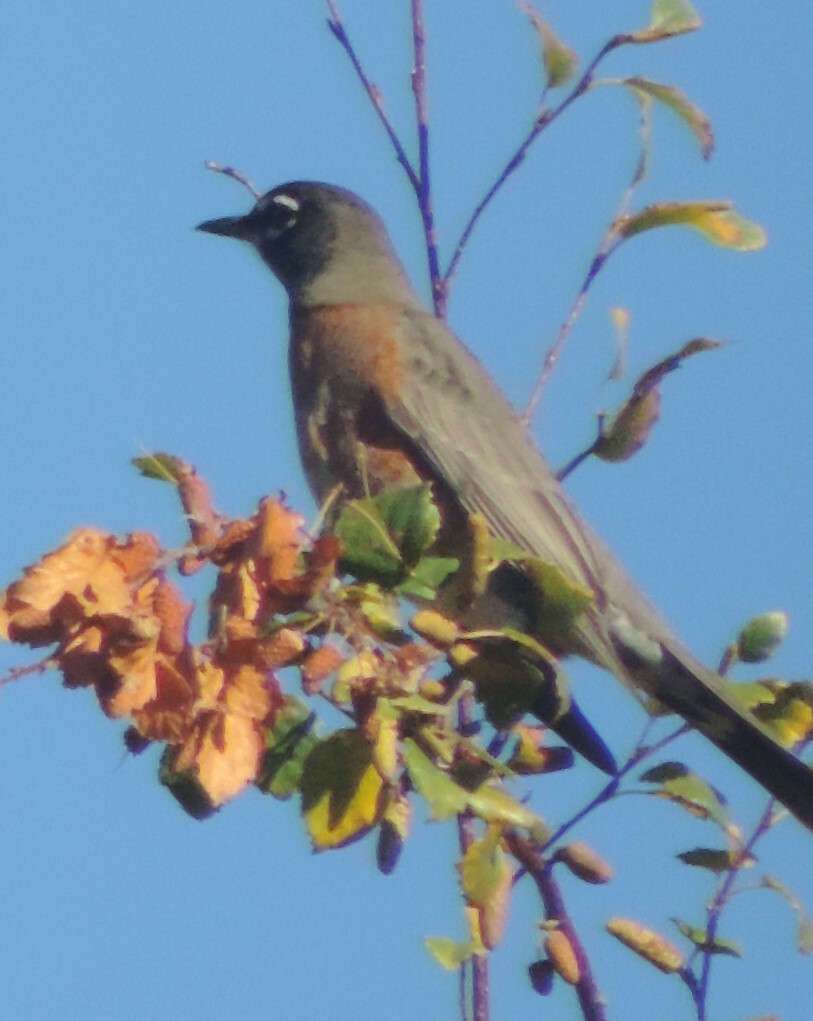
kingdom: Animalia
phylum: Chordata
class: Aves
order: Passeriformes
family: Turdidae
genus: Turdus
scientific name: Turdus migratorius
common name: American robin
